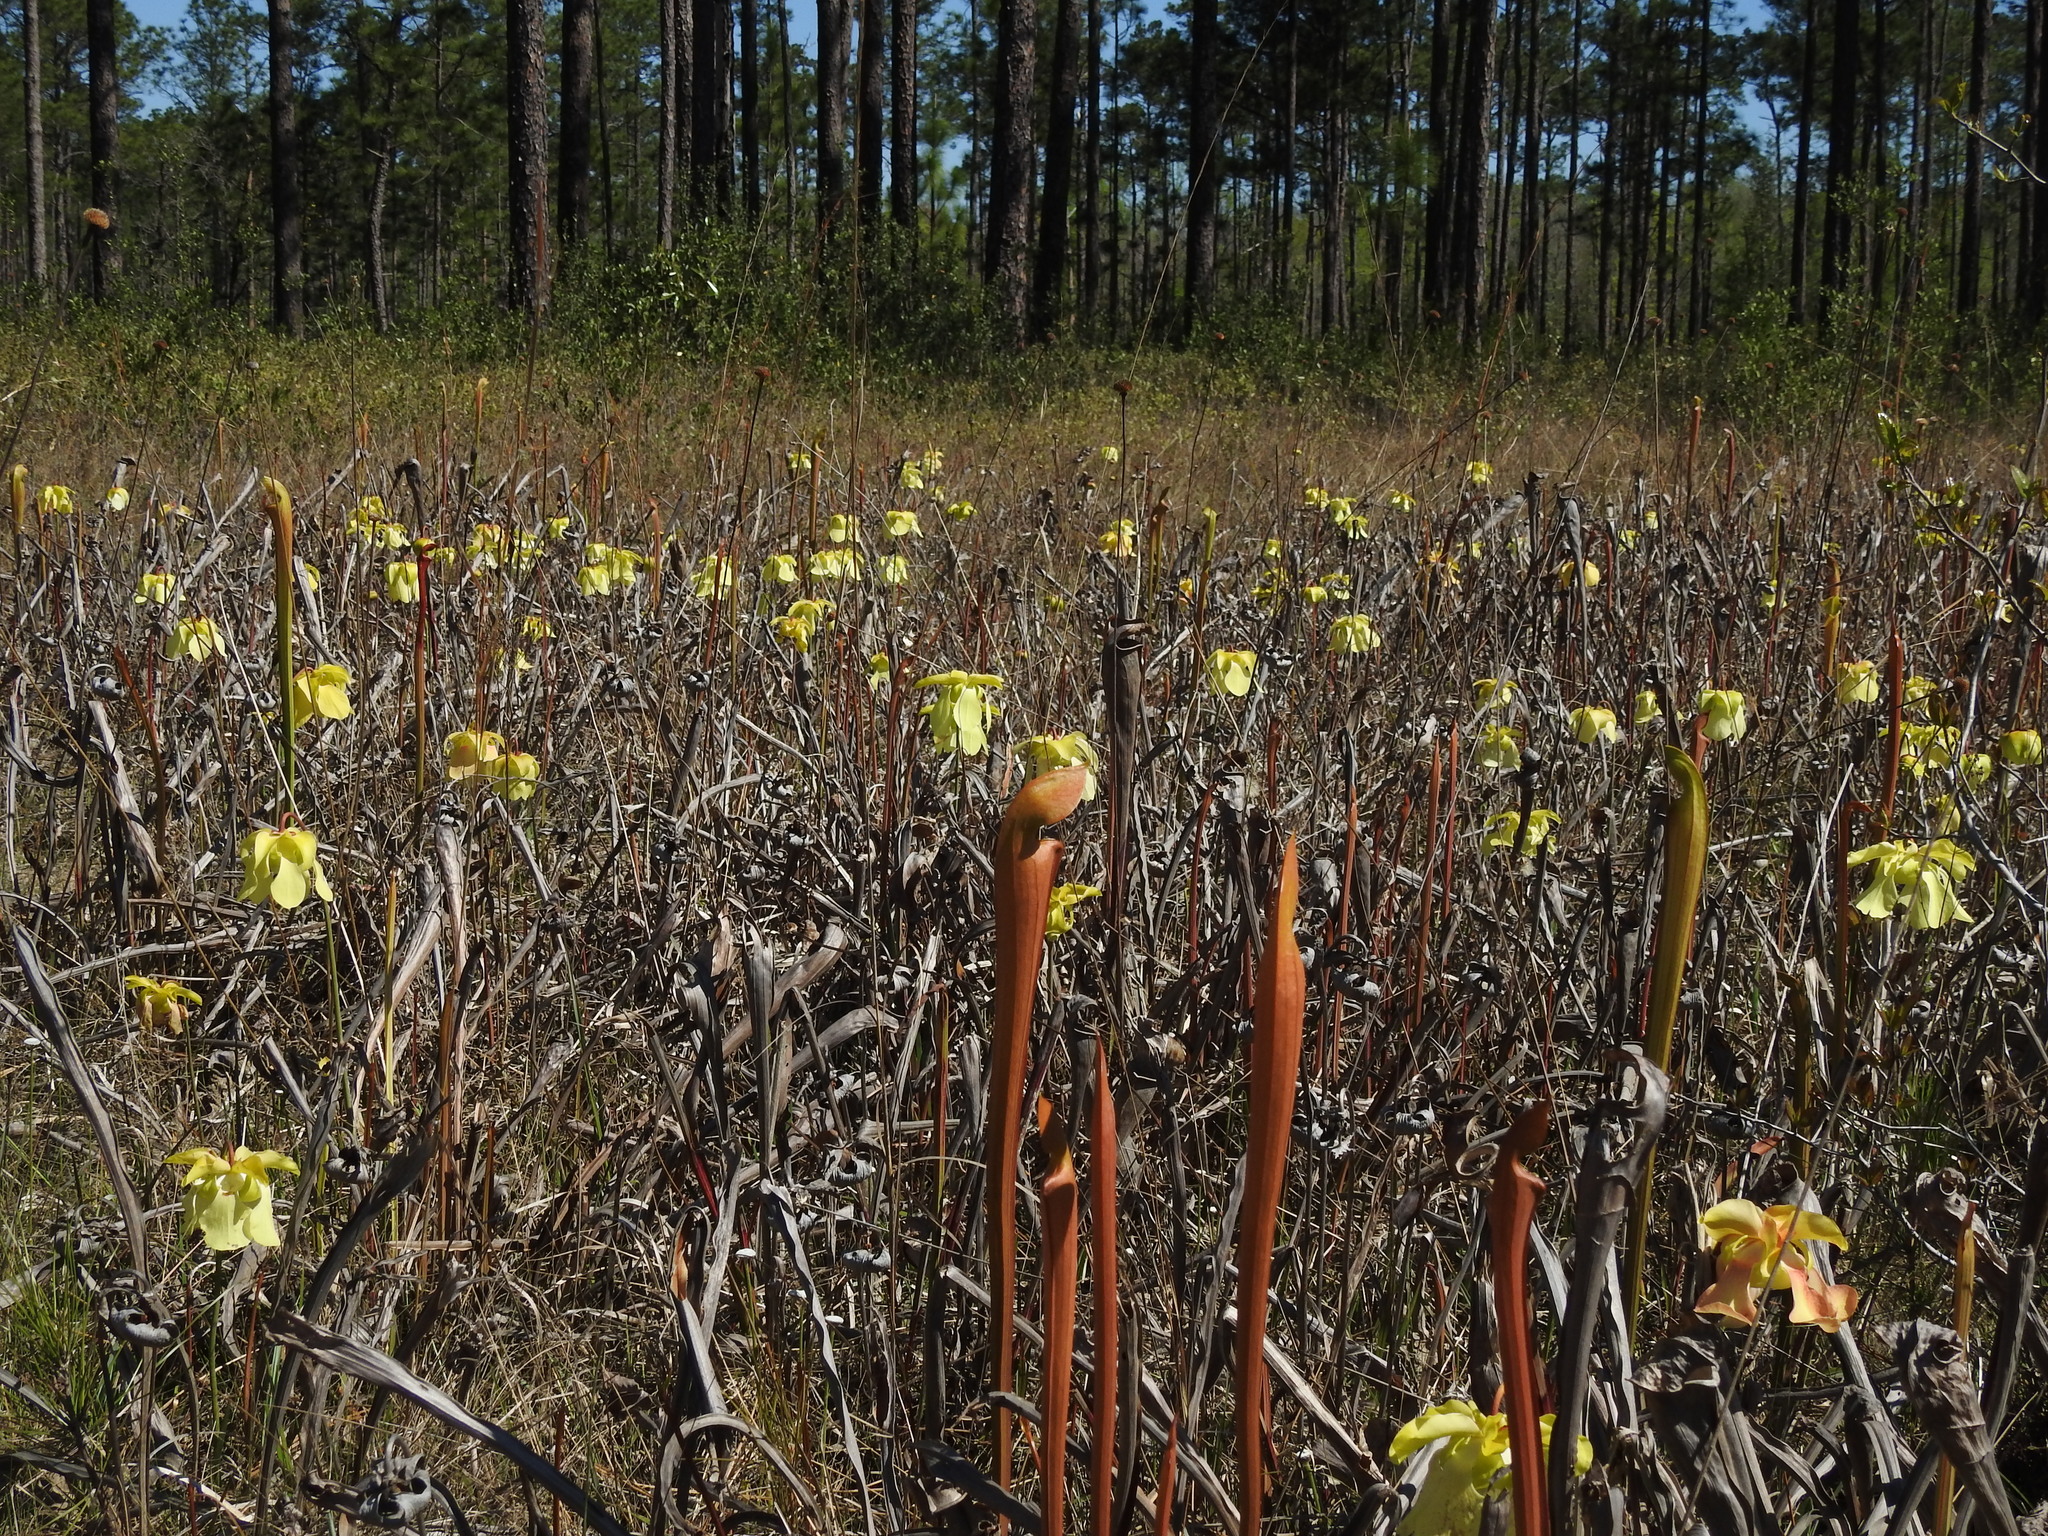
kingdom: Plantae
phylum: Tracheophyta
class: Magnoliopsida
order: Ericales
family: Sarraceniaceae
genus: Sarracenia
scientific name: Sarracenia alata
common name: Yellow trumpets
